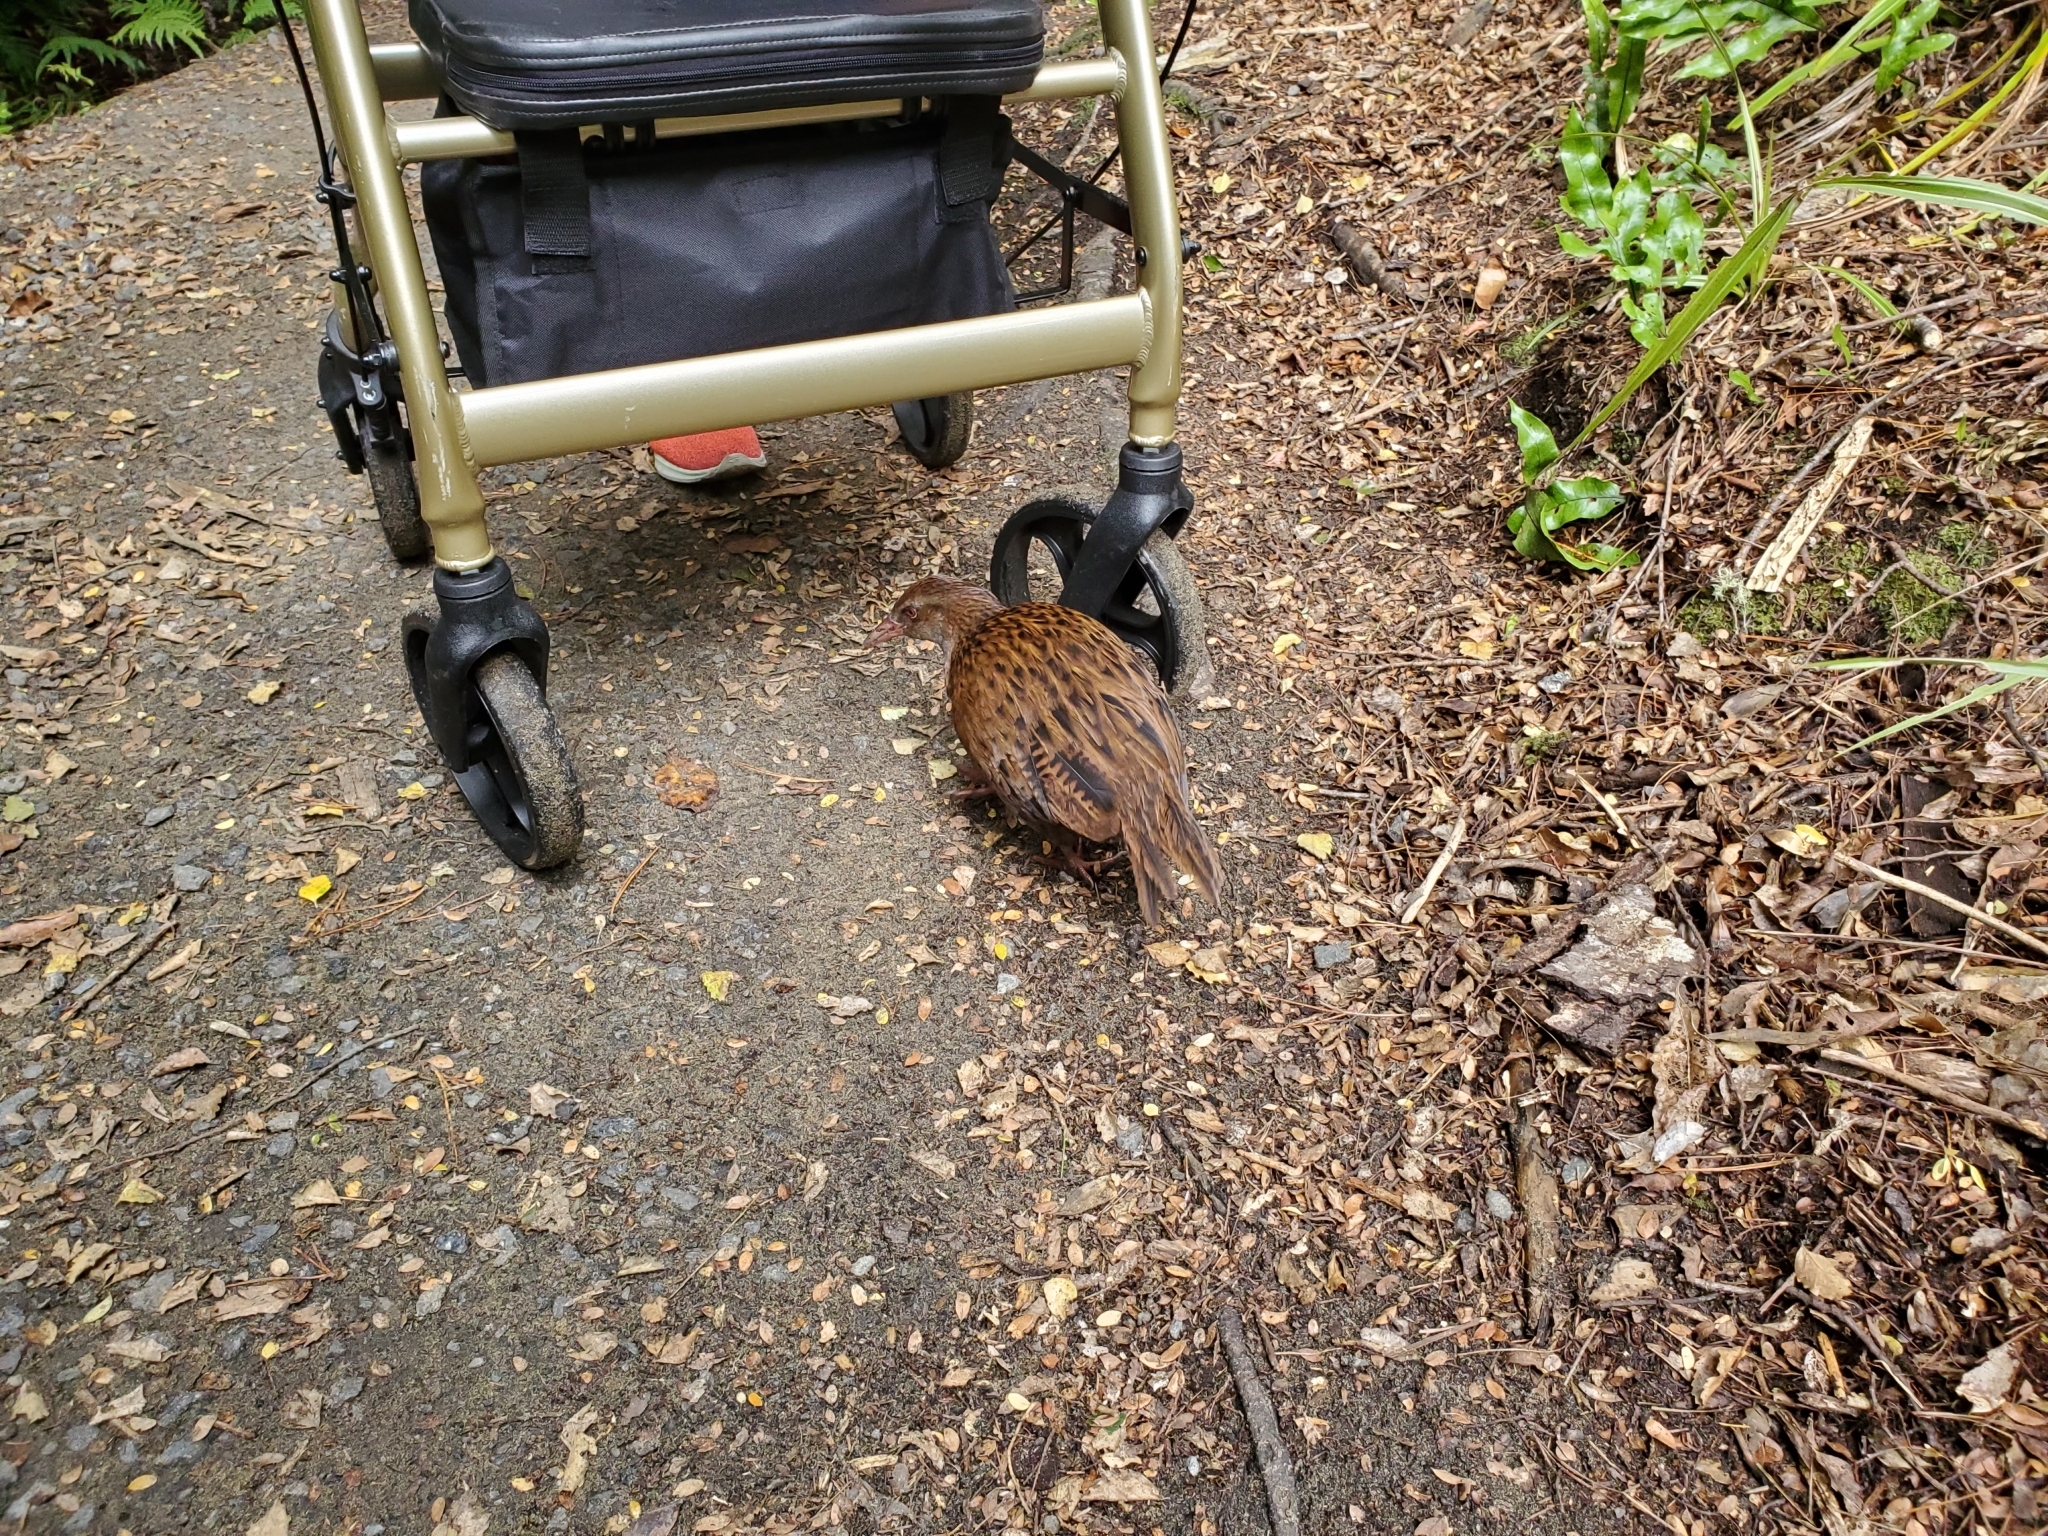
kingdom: Animalia
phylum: Chordata
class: Aves
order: Gruiformes
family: Rallidae
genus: Gallirallus
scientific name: Gallirallus australis
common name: Weka
